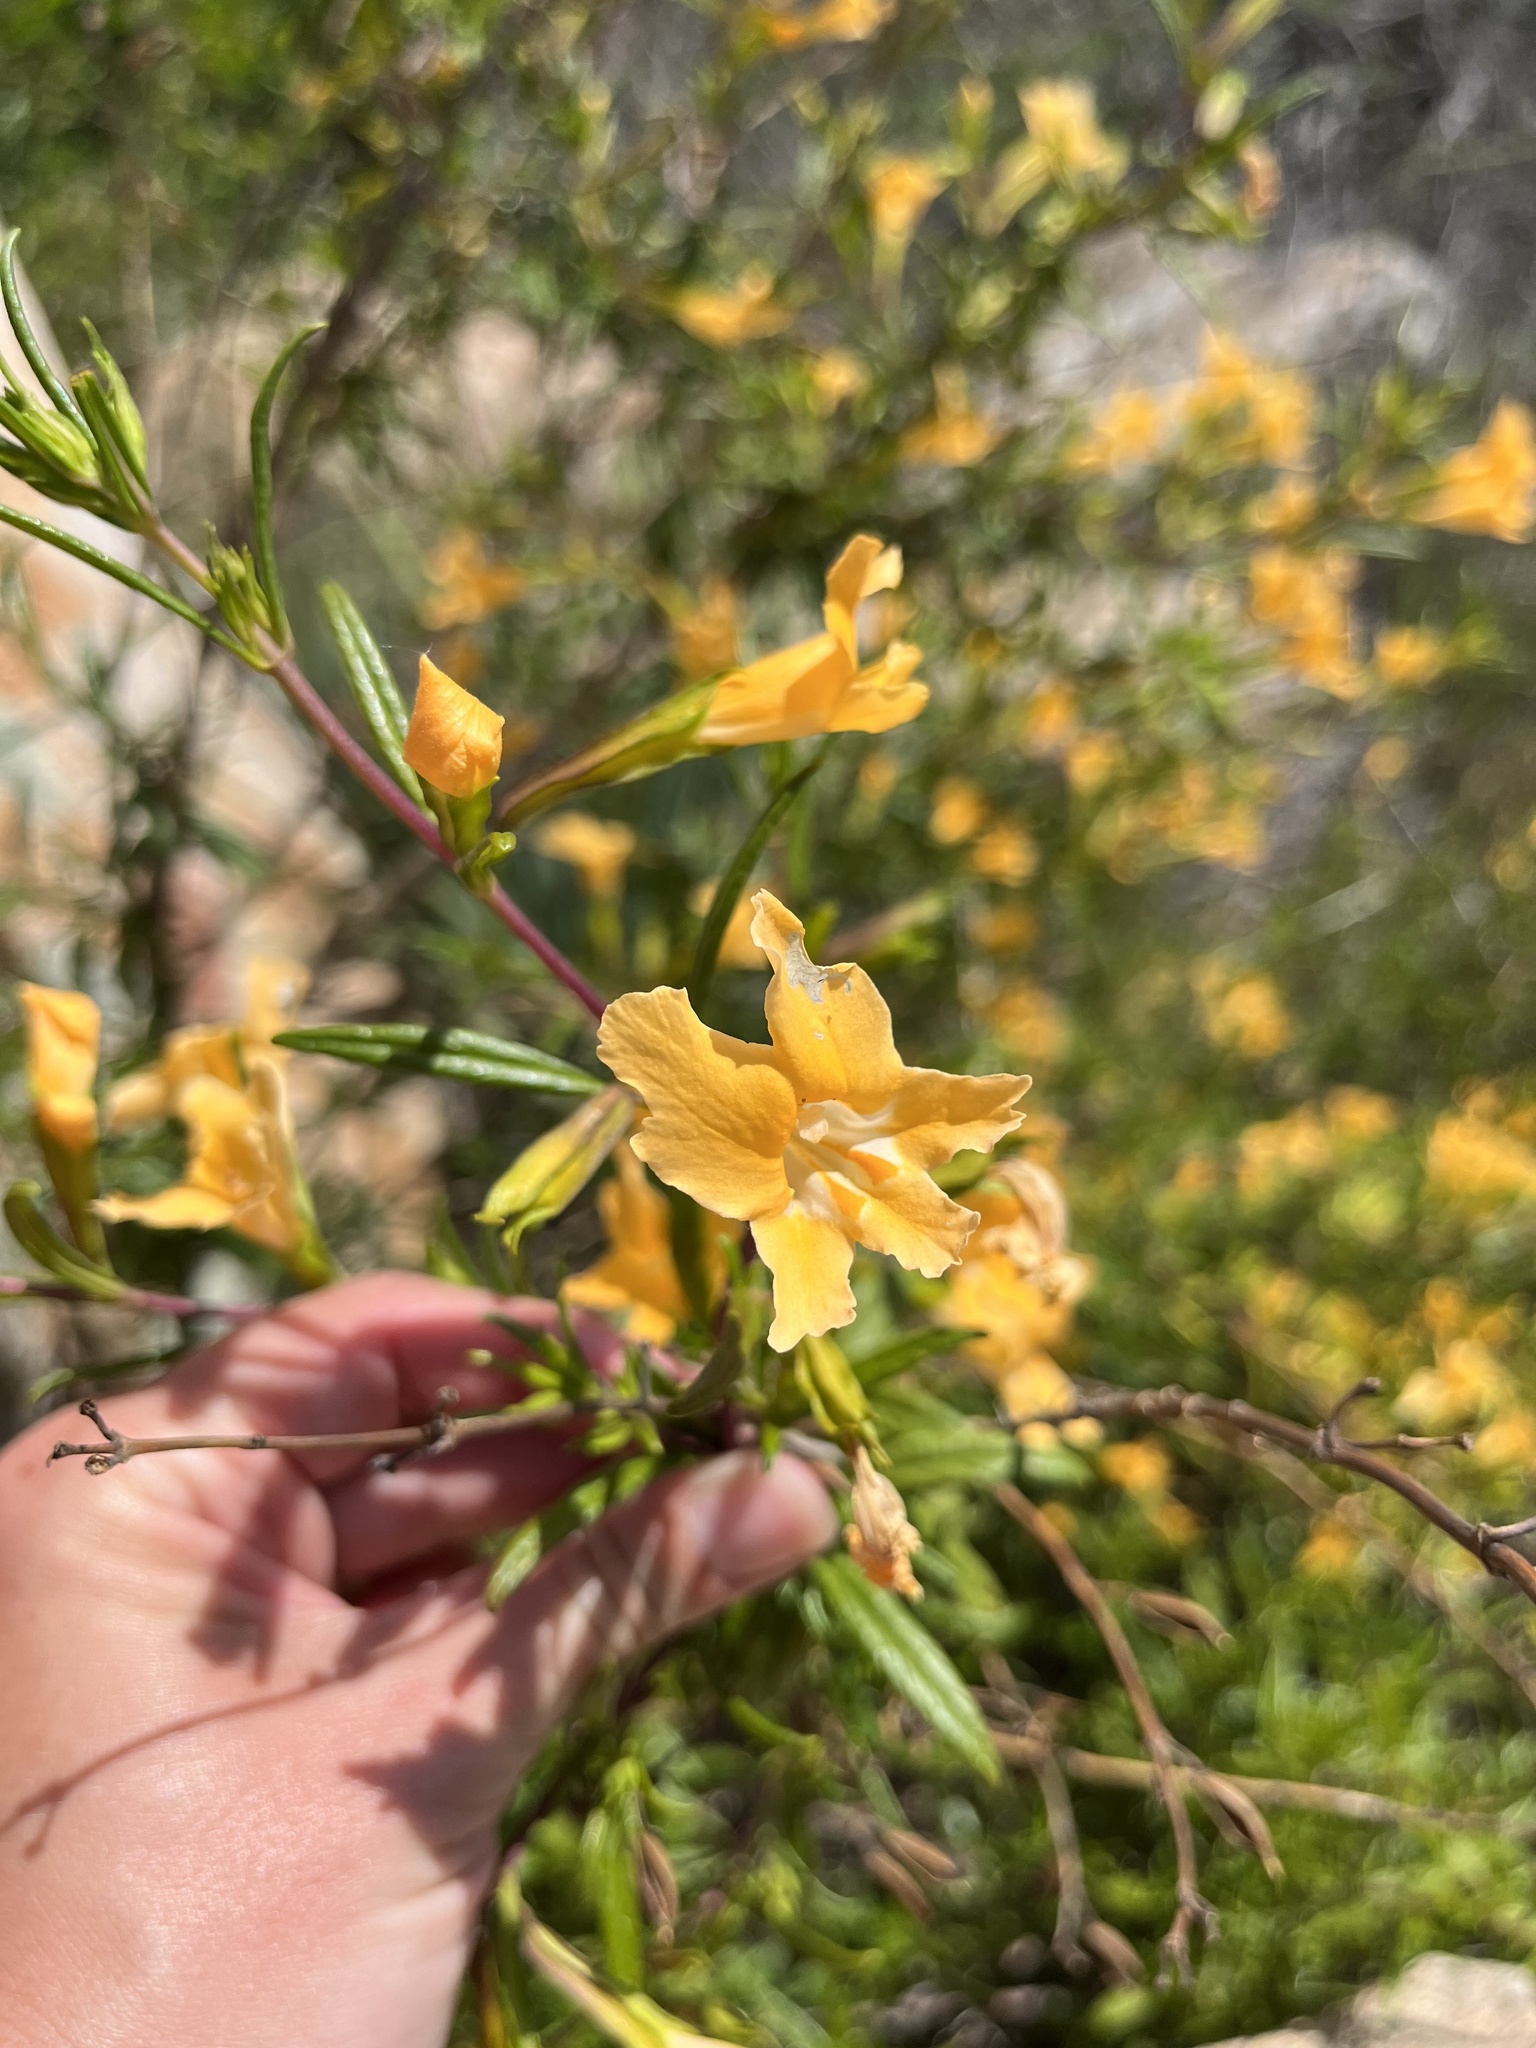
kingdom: Plantae
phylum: Tracheophyta
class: Magnoliopsida
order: Lamiales
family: Phrymaceae
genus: Diplacus
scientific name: Diplacus australis
